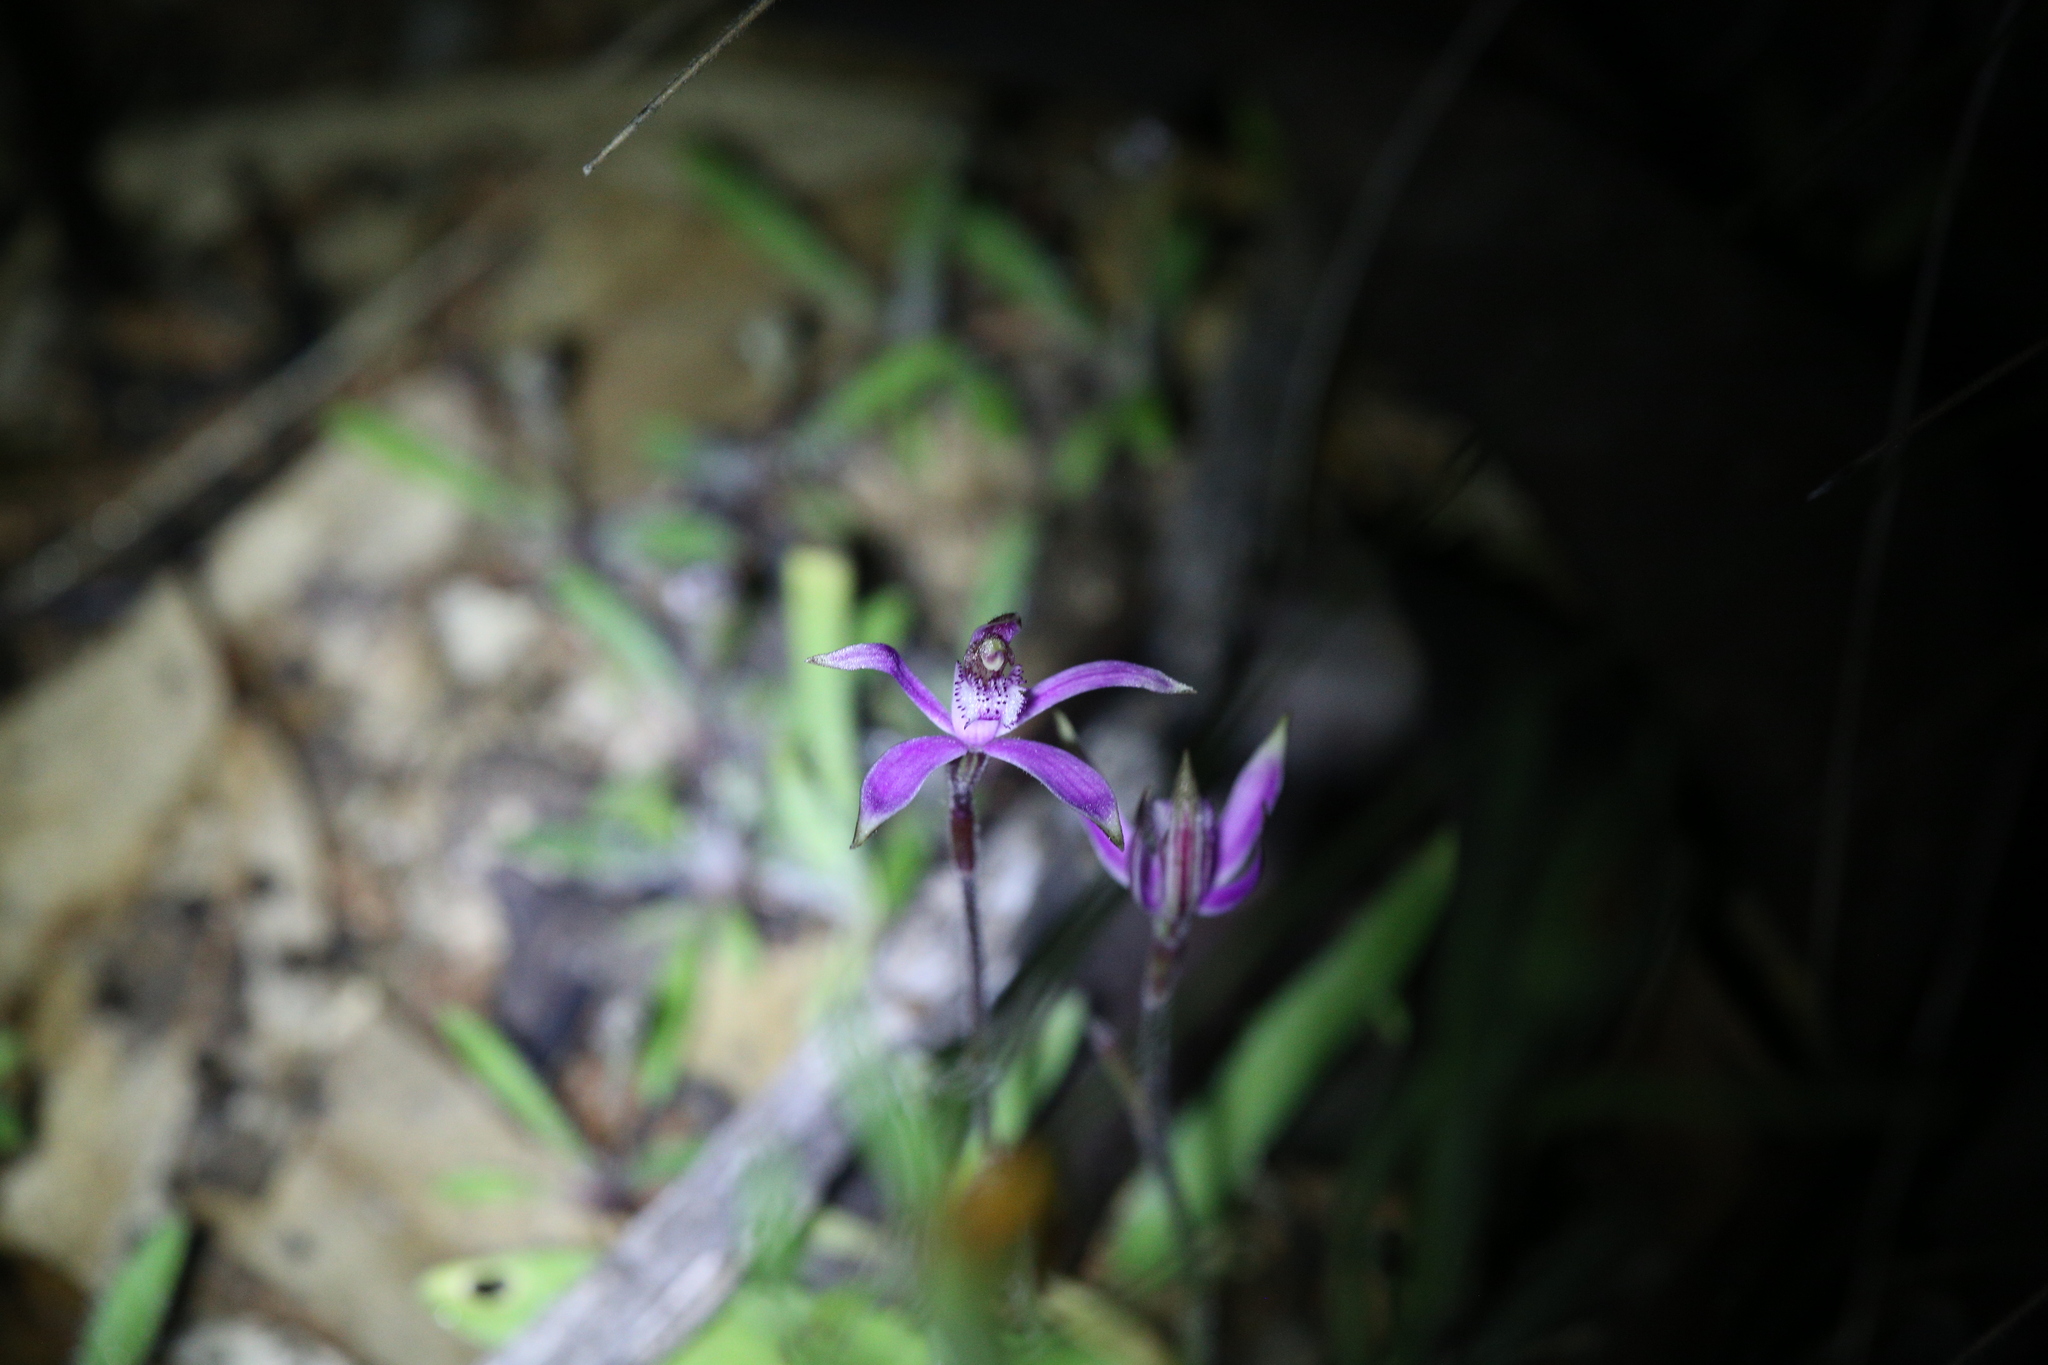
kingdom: Plantae
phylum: Tracheophyta
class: Liliopsida
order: Asparagales
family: Orchidaceae
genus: Caladenia
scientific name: Caladenia hirta
